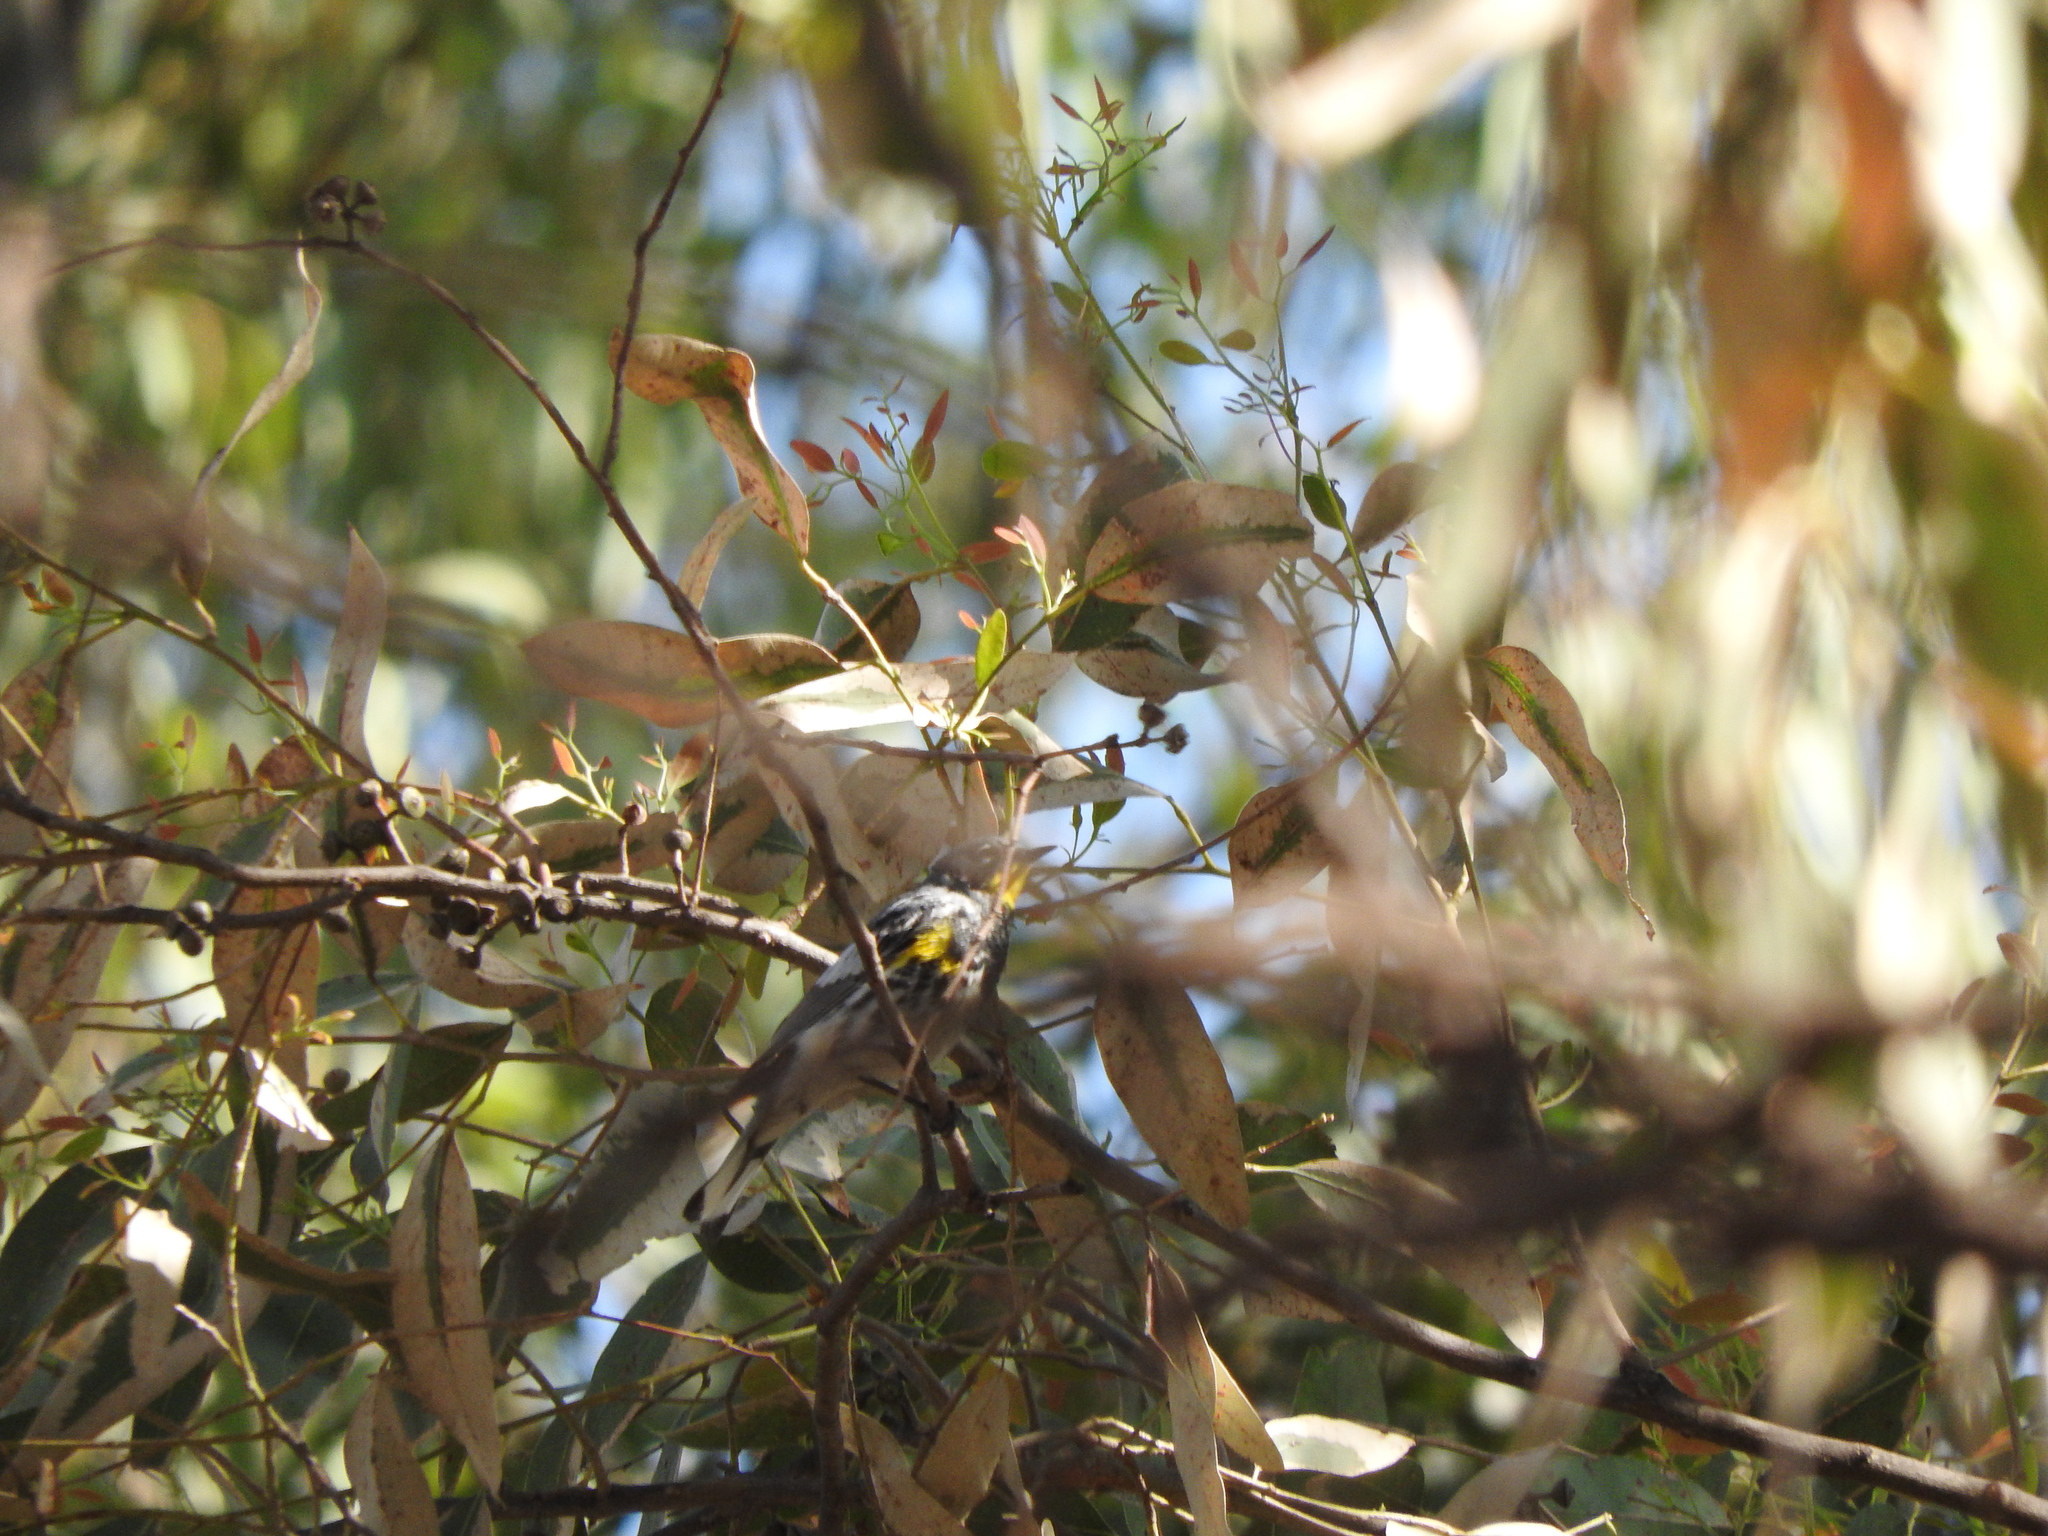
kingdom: Animalia
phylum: Chordata
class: Aves
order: Passeriformes
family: Parulidae
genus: Setophaga
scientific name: Setophaga coronata
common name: Myrtle warbler
